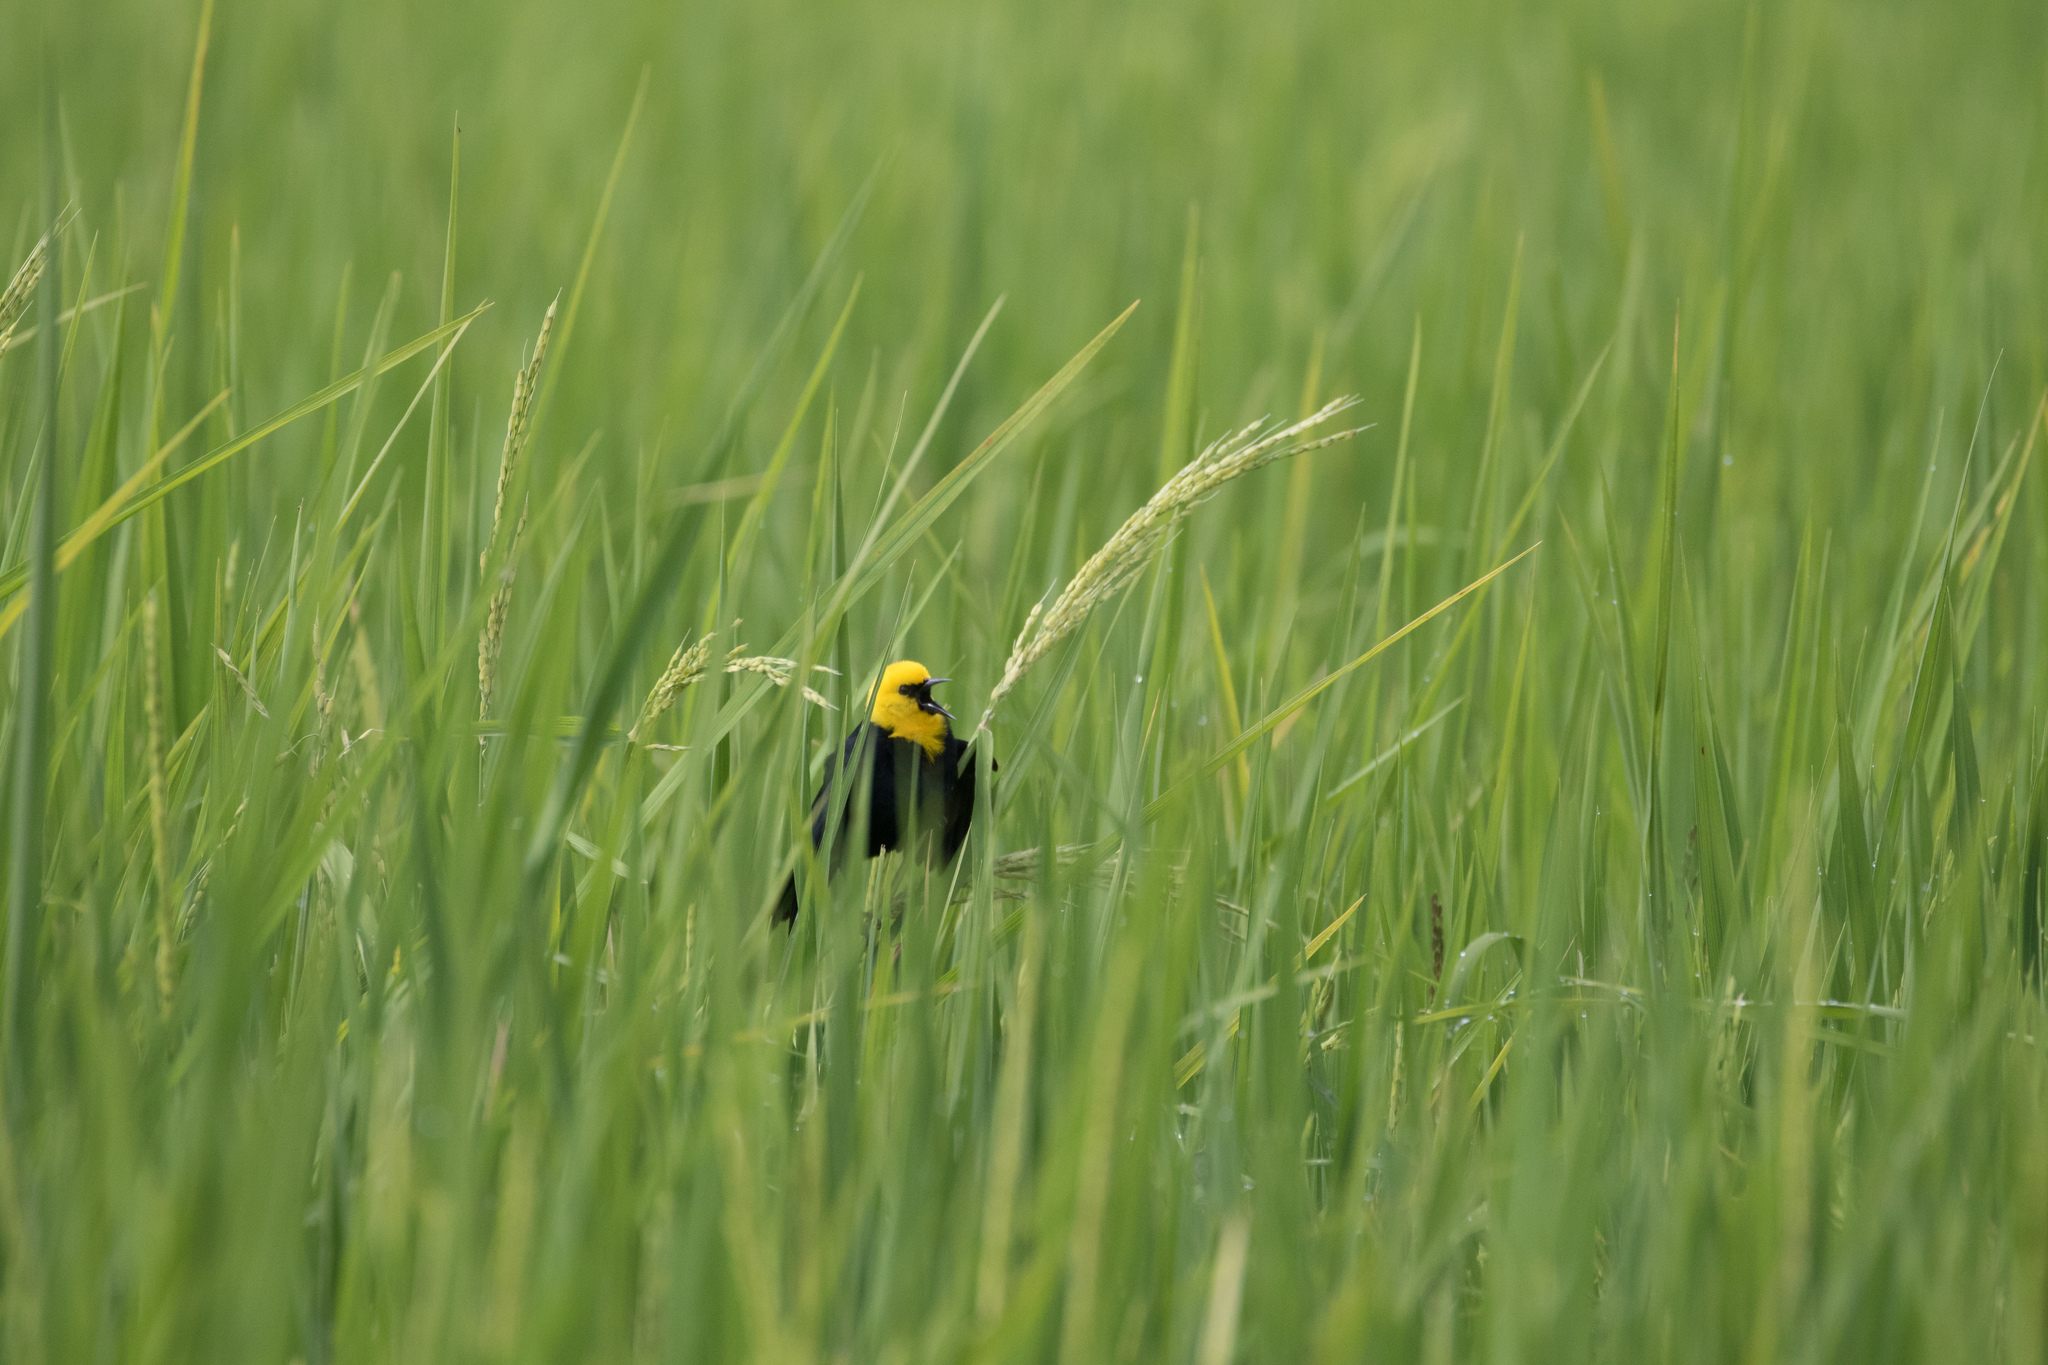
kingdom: Animalia
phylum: Chordata
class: Aves
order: Passeriformes
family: Icteridae
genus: Chrysomus
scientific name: Chrysomus icterocephalus
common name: Yellow-hooded blackbird
